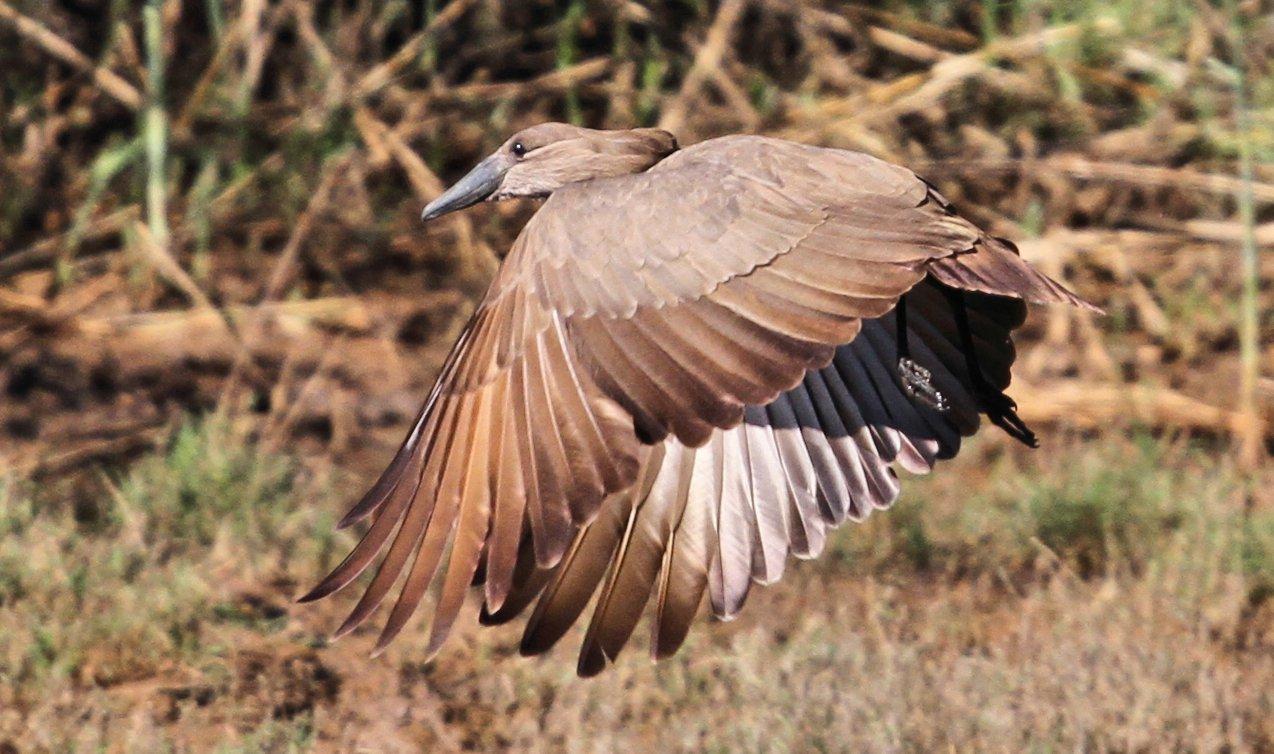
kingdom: Animalia
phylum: Chordata
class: Aves
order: Pelecaniformes
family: Scopidae
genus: Scopus
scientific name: Scopus umbretta
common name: Hamerkop
